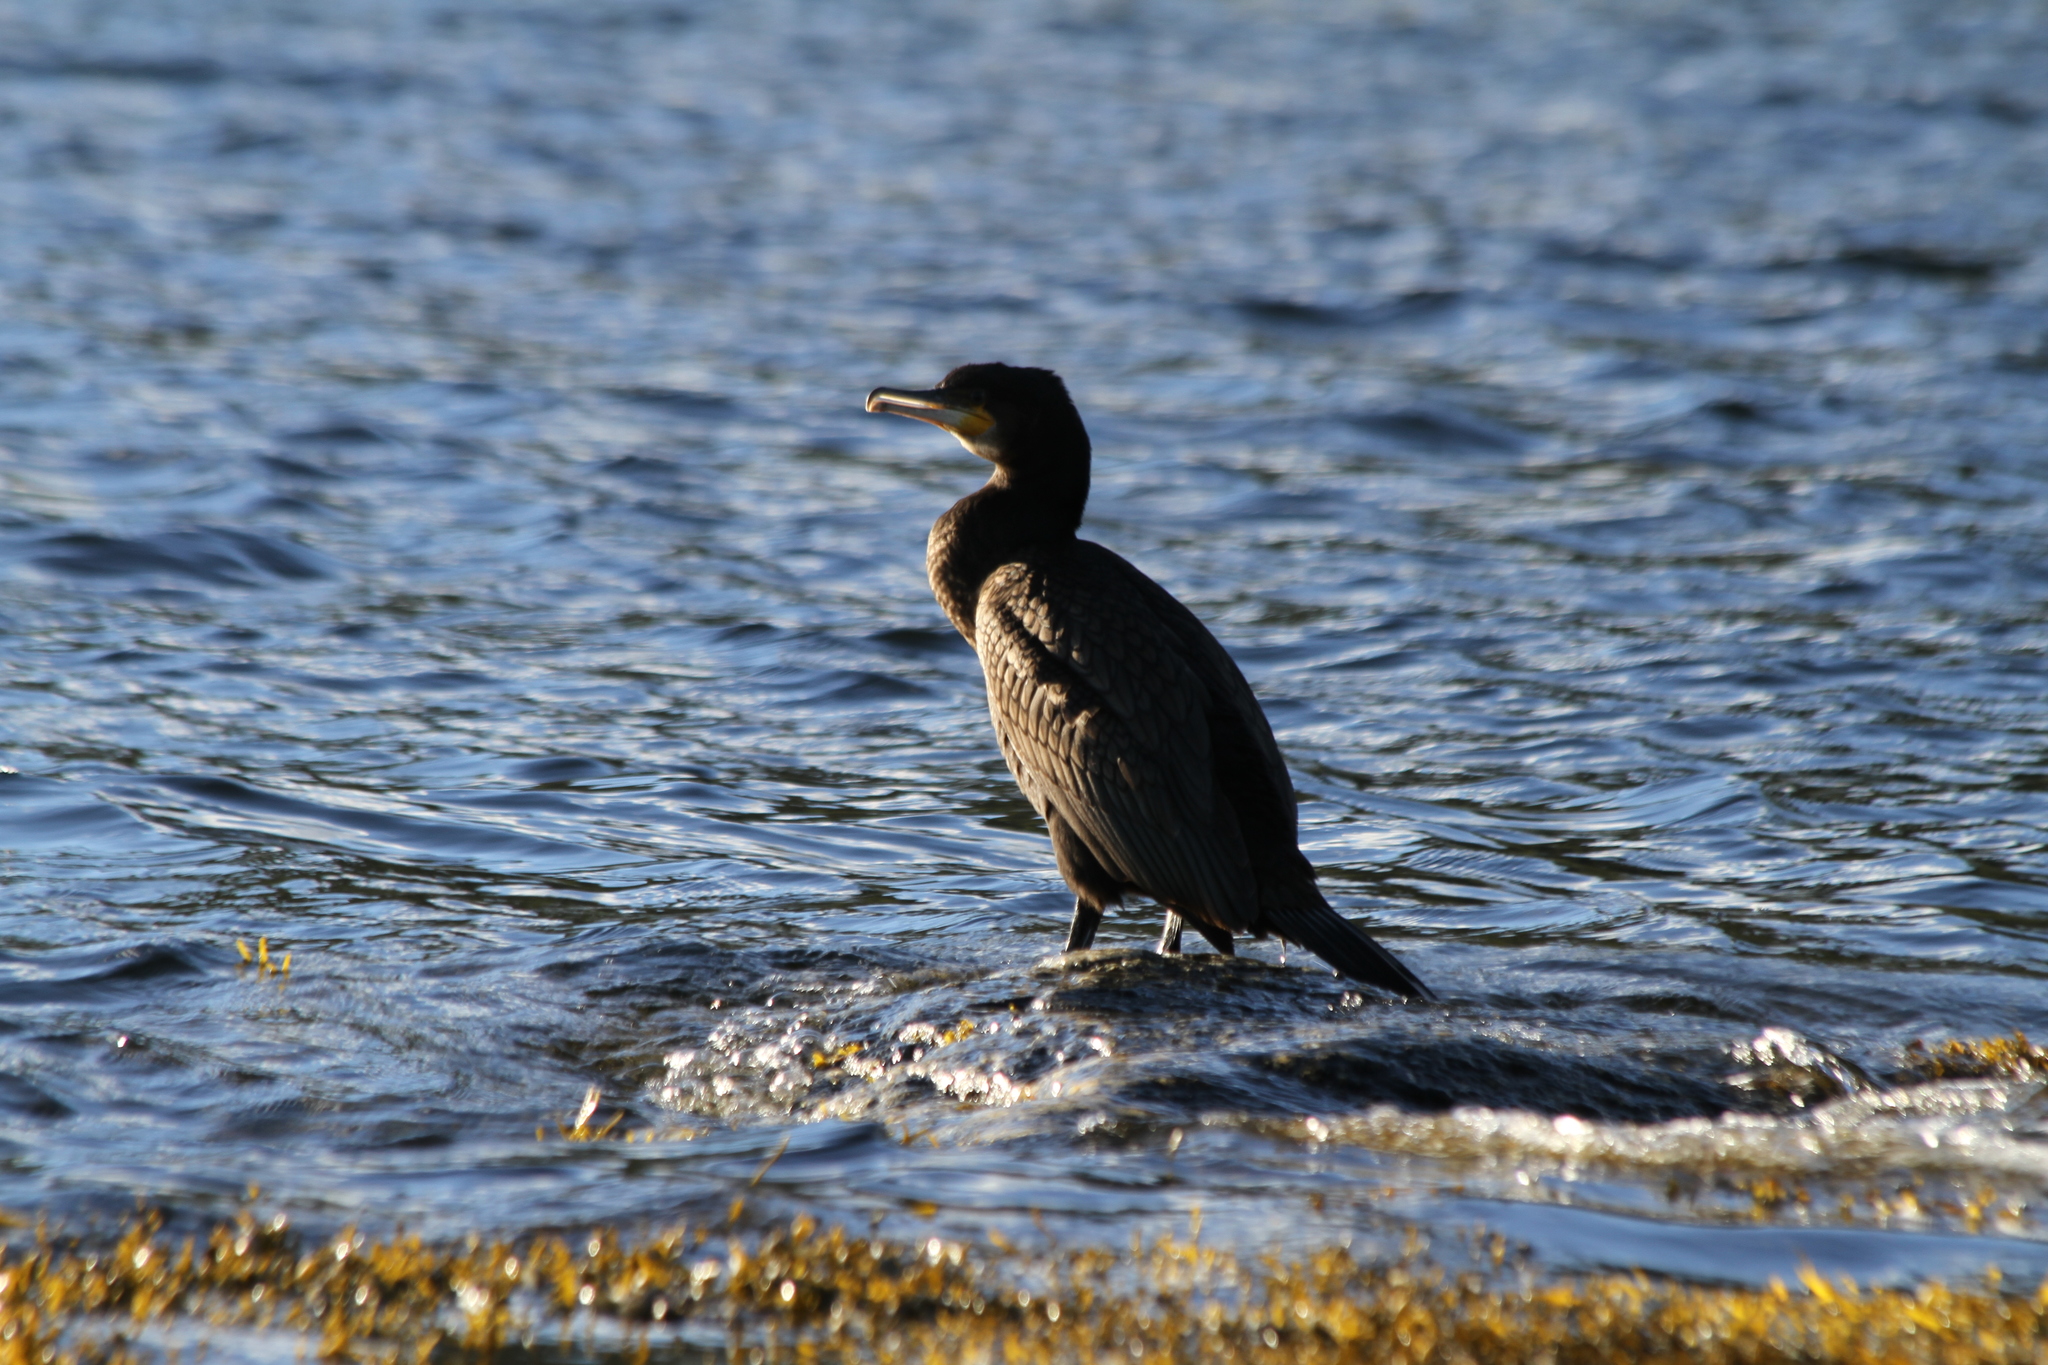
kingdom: Animalia
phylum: Chordata
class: Aves
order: Suliformes
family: Phalacrocoracidae
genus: Phalacrocorax
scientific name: Phalacrocorax carbo
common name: Great cormorant
